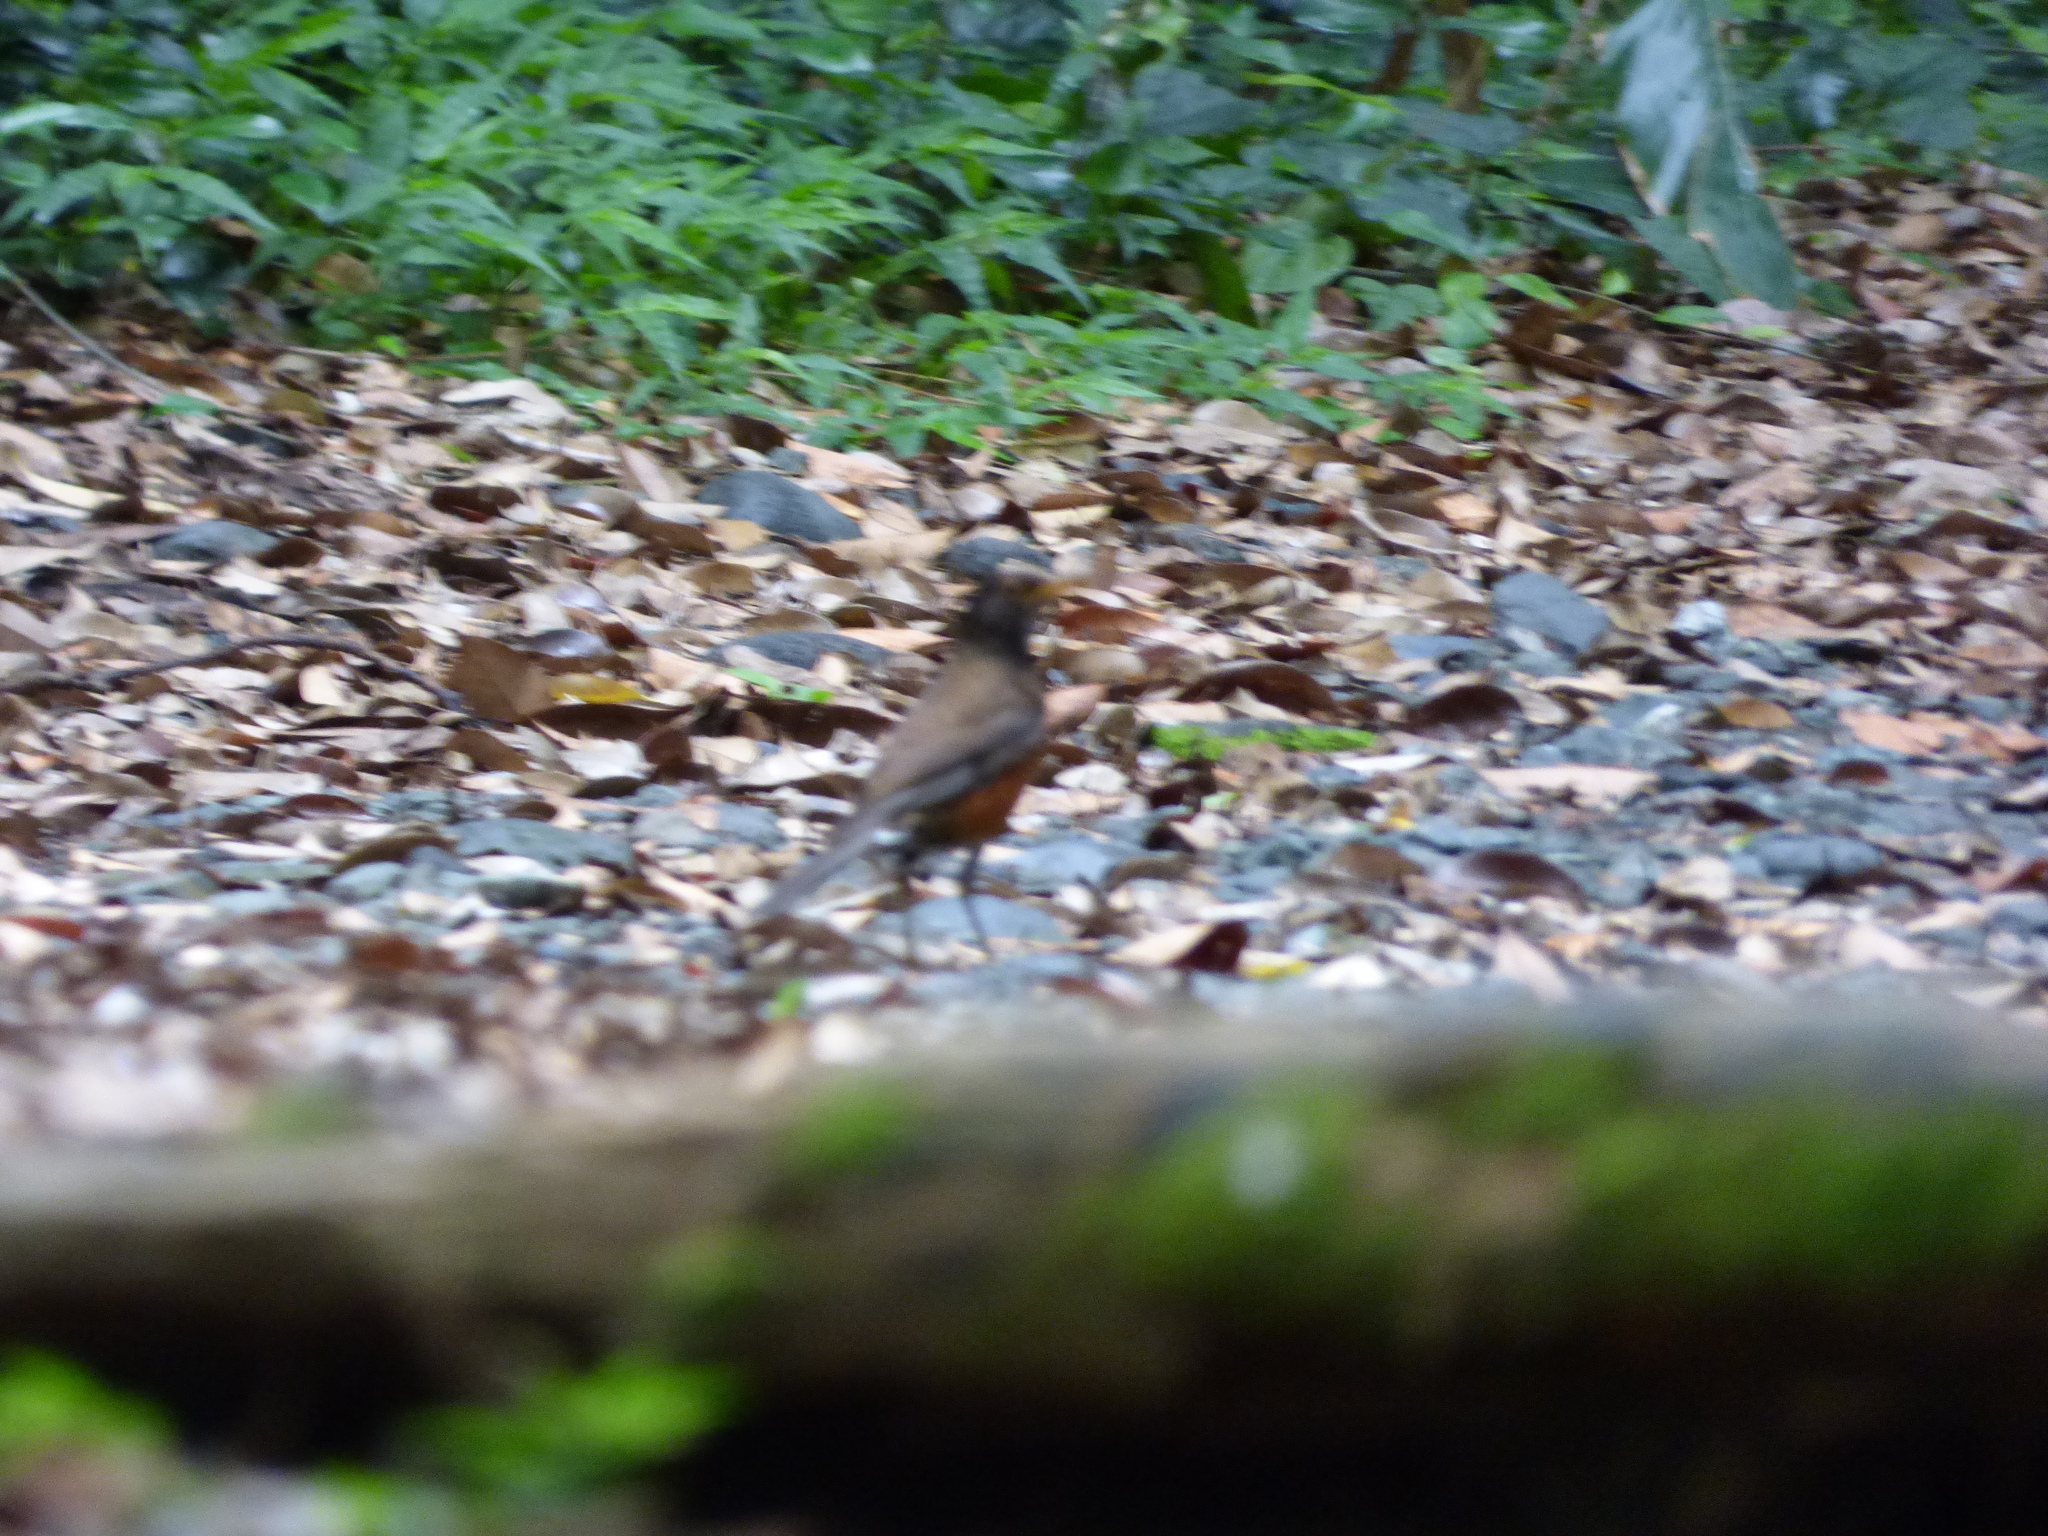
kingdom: Animalia
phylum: Chordata
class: Aves
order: Passeriformes
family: Turdidae
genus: Turdus
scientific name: Turdus celaenops
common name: Izu thrush
